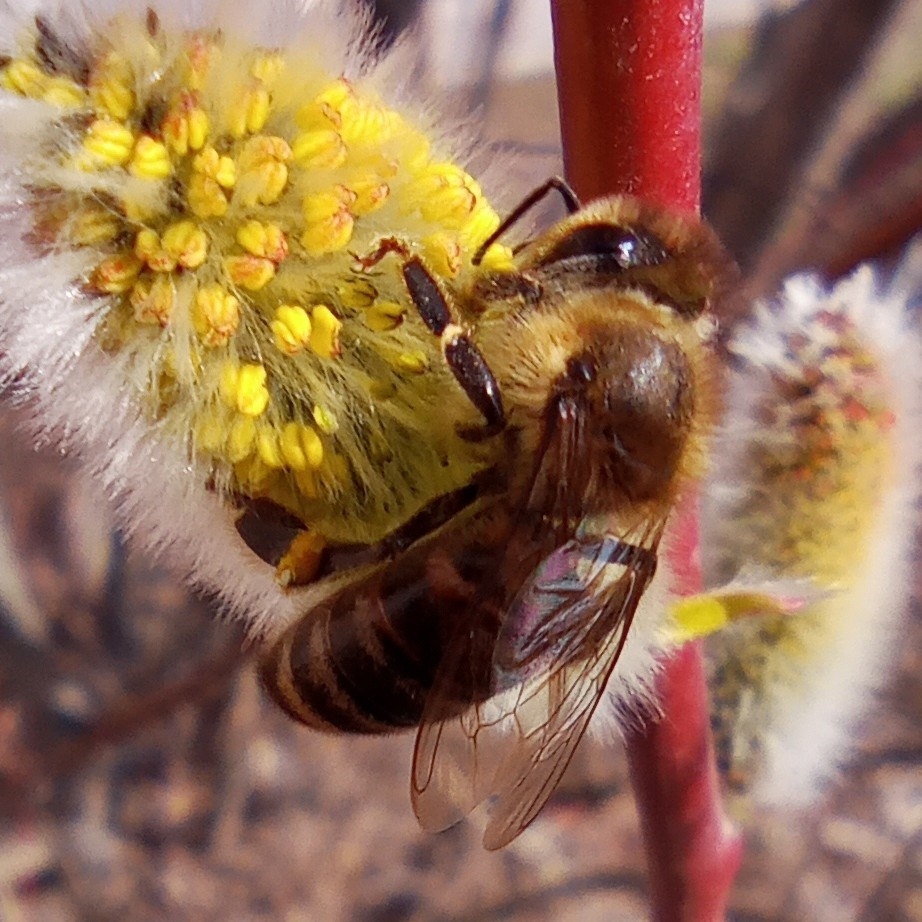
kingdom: Animalia
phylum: Arthropoda
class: Insecta
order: Hymenoptera
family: Apidae
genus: Apis
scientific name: Apis mellifera
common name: Honey bee
